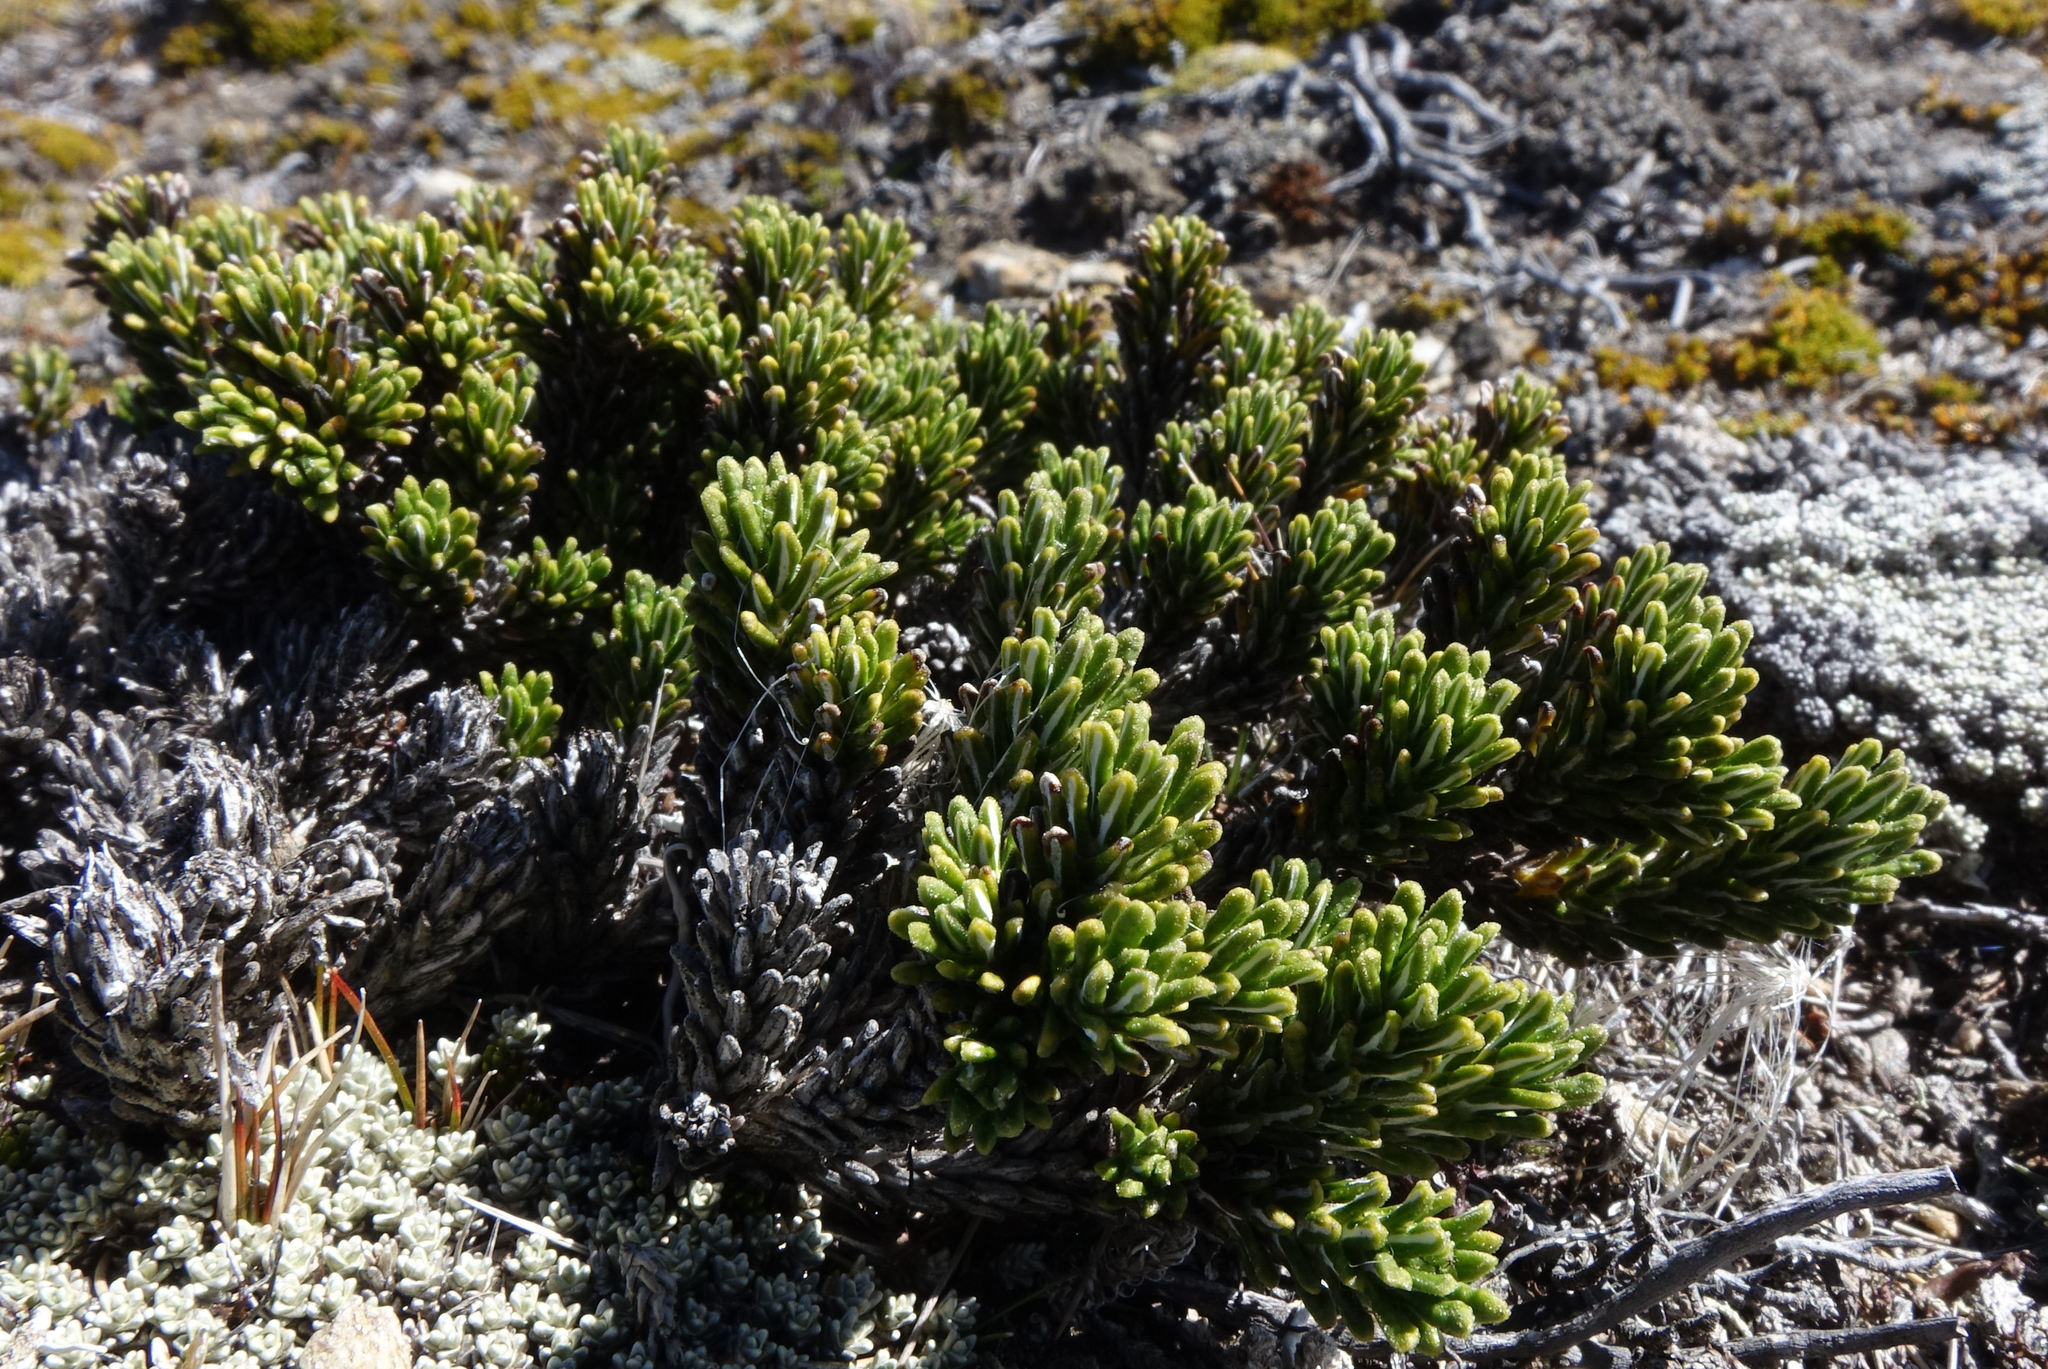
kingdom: Plantae
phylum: Tracheophyta
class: Magnoliopsida
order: Asterales
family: Asteraceae
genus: Celmisia
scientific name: Celmisia ramulosa
